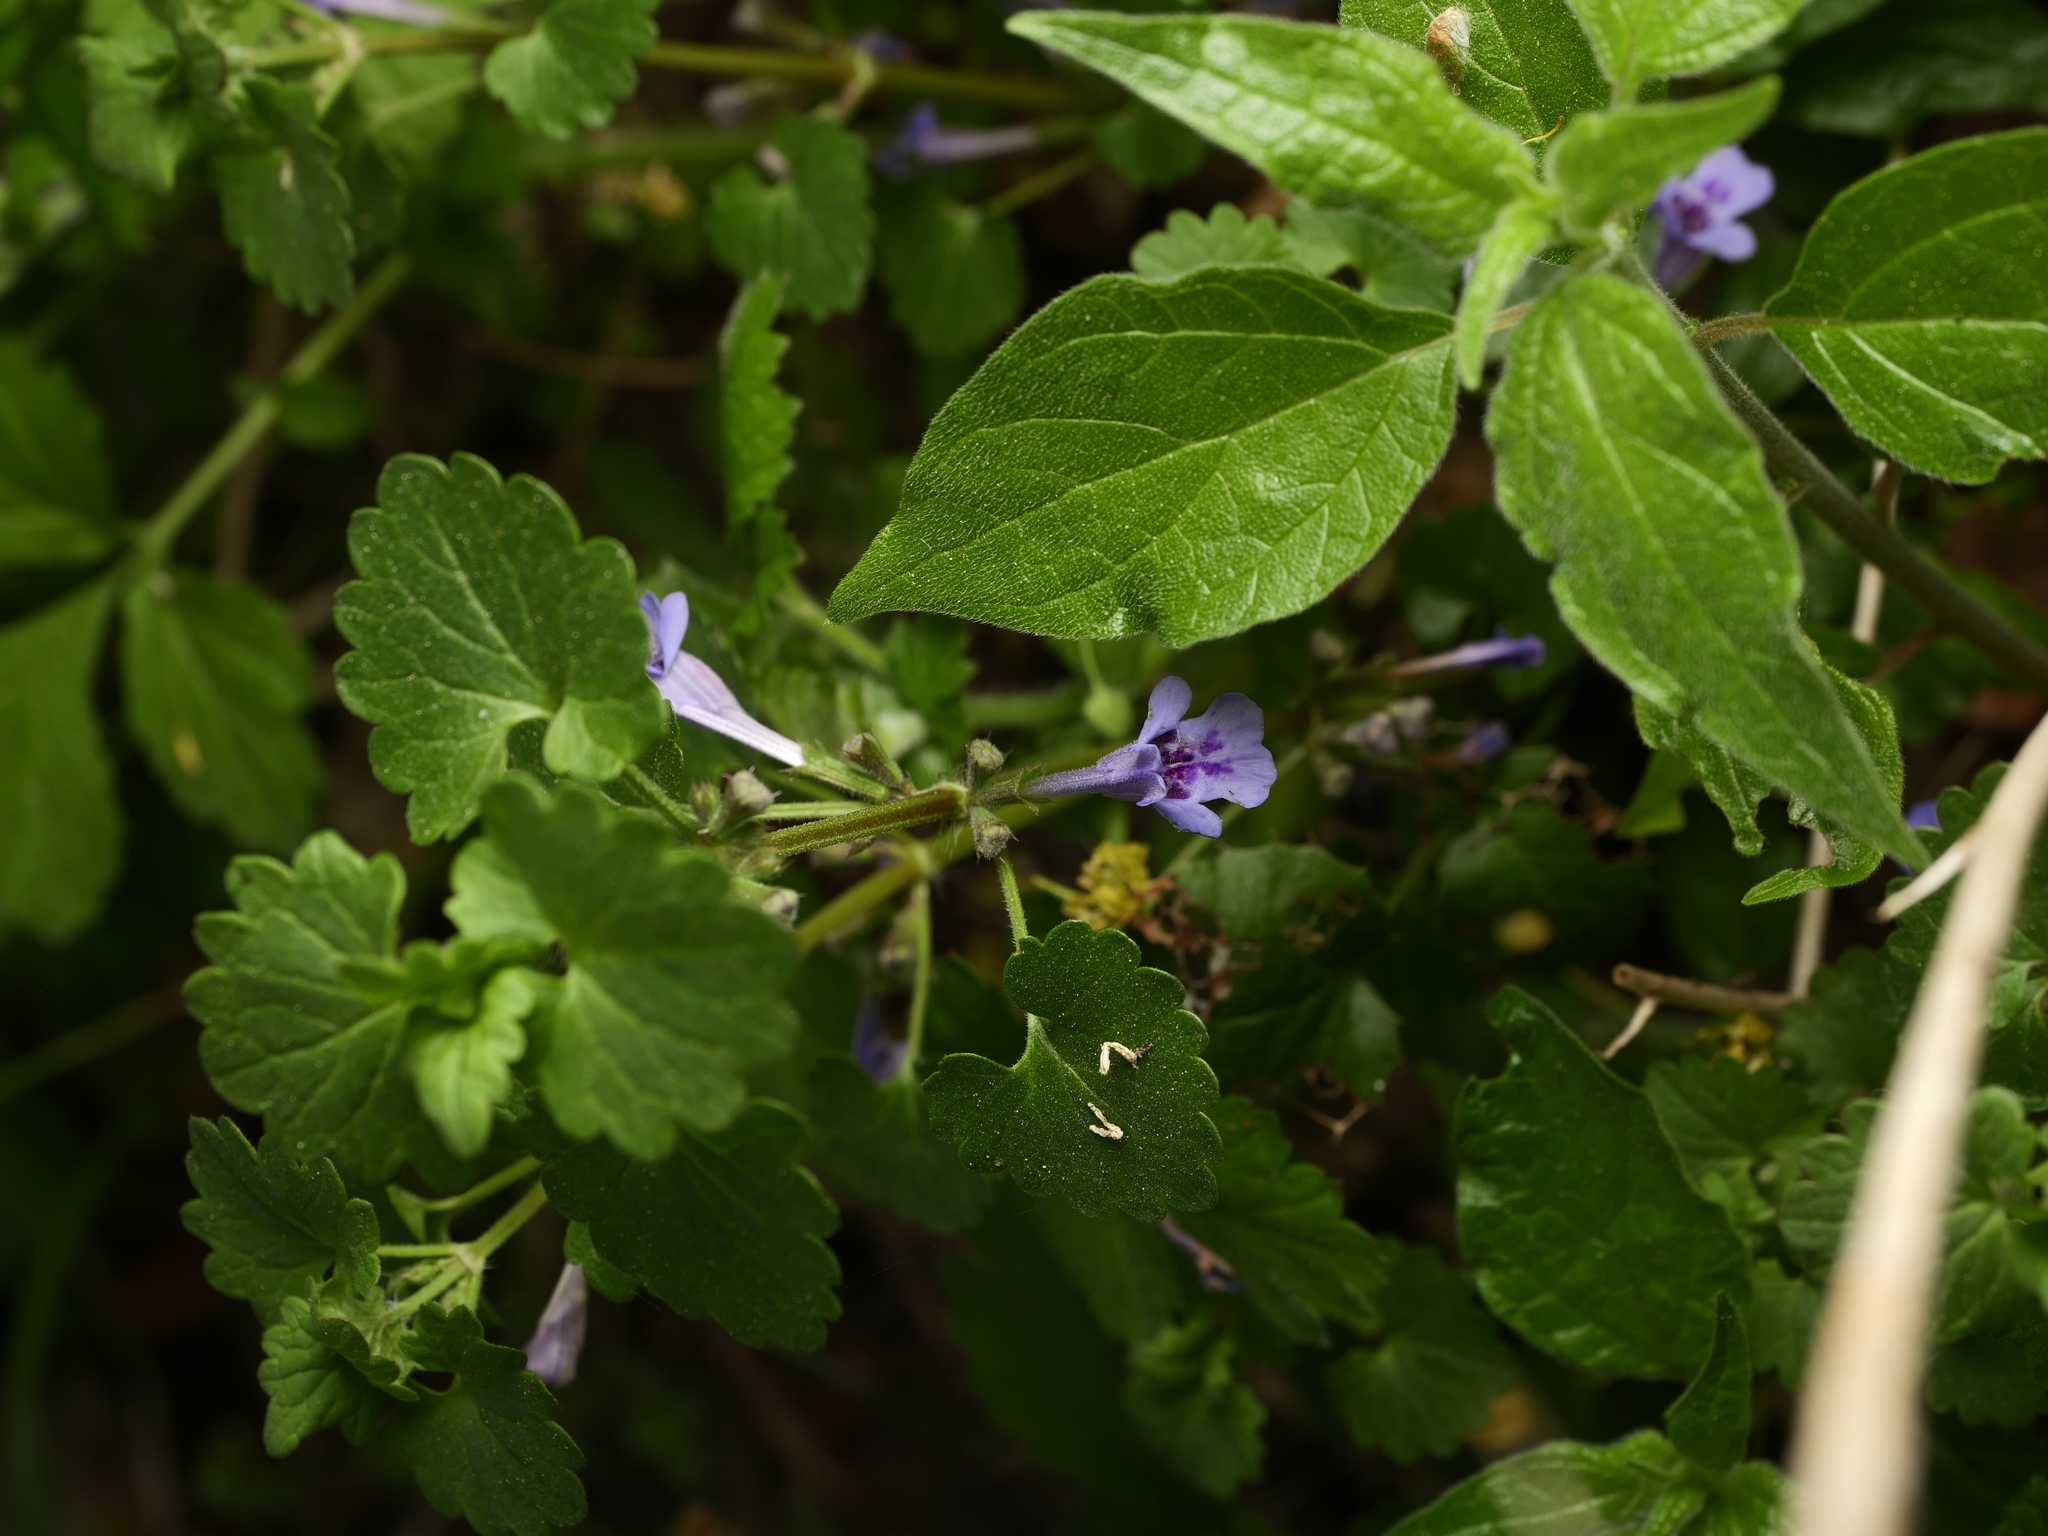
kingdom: Plantae
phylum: Tracheophyta
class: Magnoliopsida
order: Lamiales
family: Lamiaceae
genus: Glechoma
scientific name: Glechoma hederacea
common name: Ground ivy
